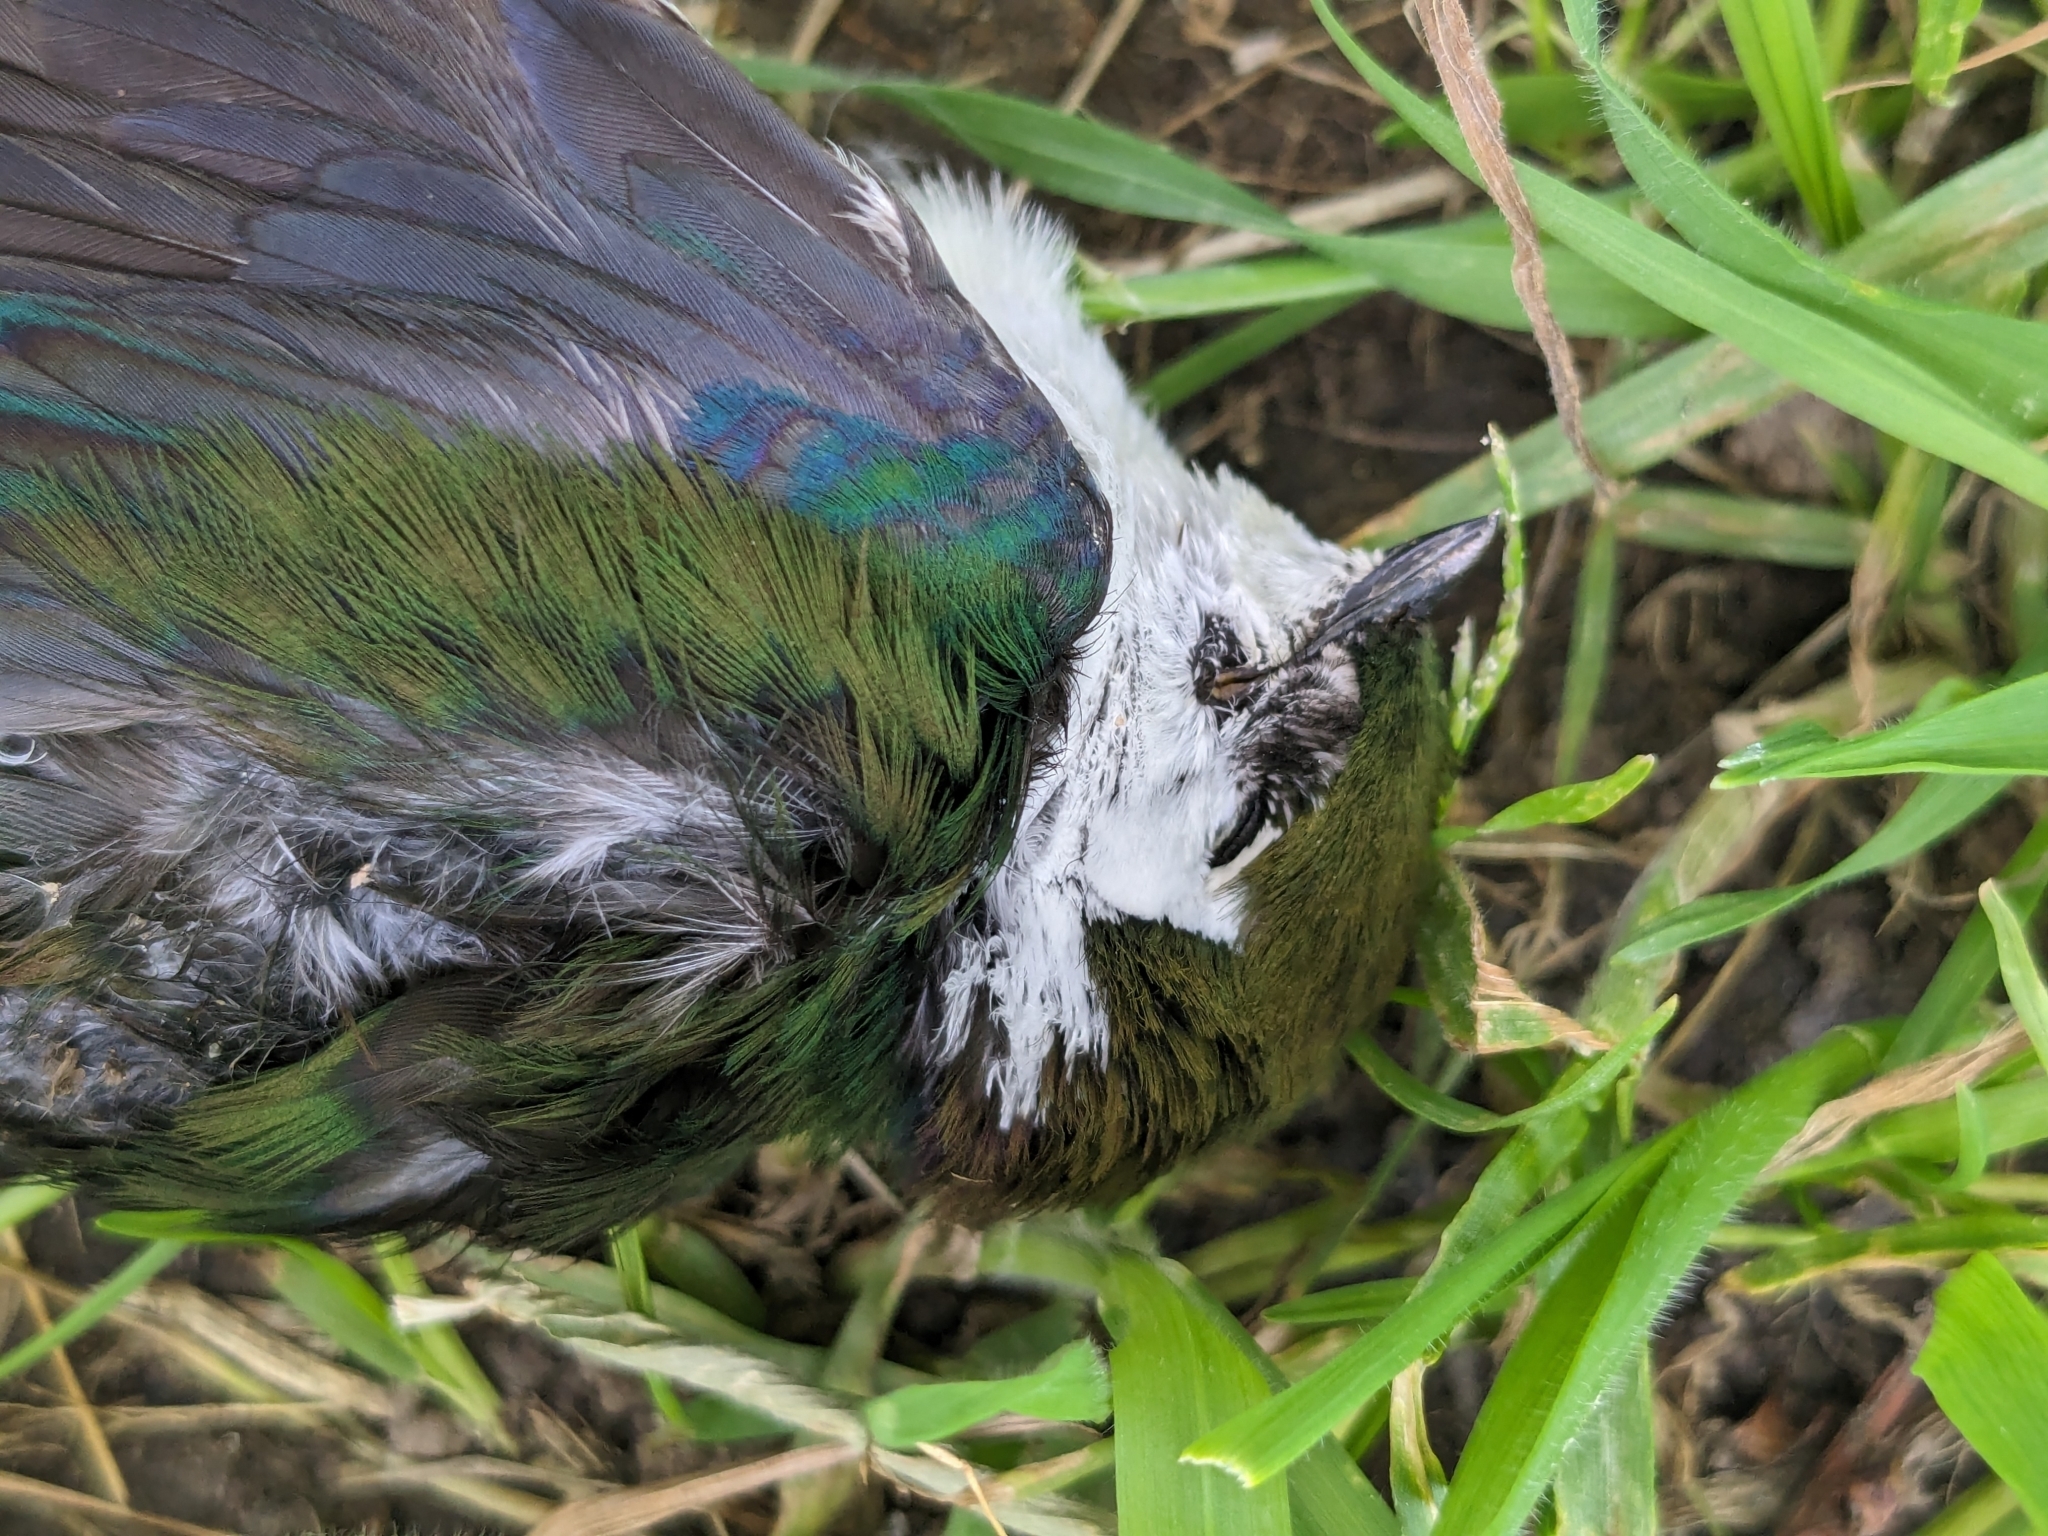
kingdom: Animalia
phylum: Chordata
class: Aves
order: Passeriformes
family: Hirundinidae
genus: Tachycineta
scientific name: Tachycineta thalassina
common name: Violet-green swallow
